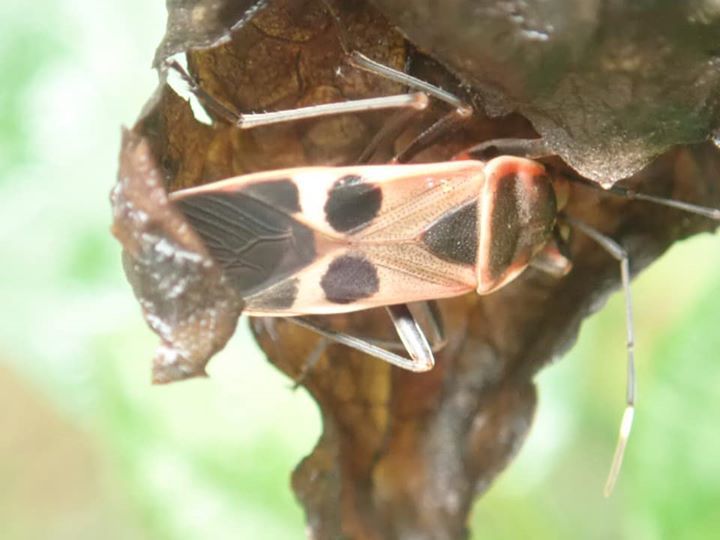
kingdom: Animalia
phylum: Arthropoda
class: Insecta
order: Hemiptera
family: Largidae
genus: Physopelta
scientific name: Physopelta gutta
